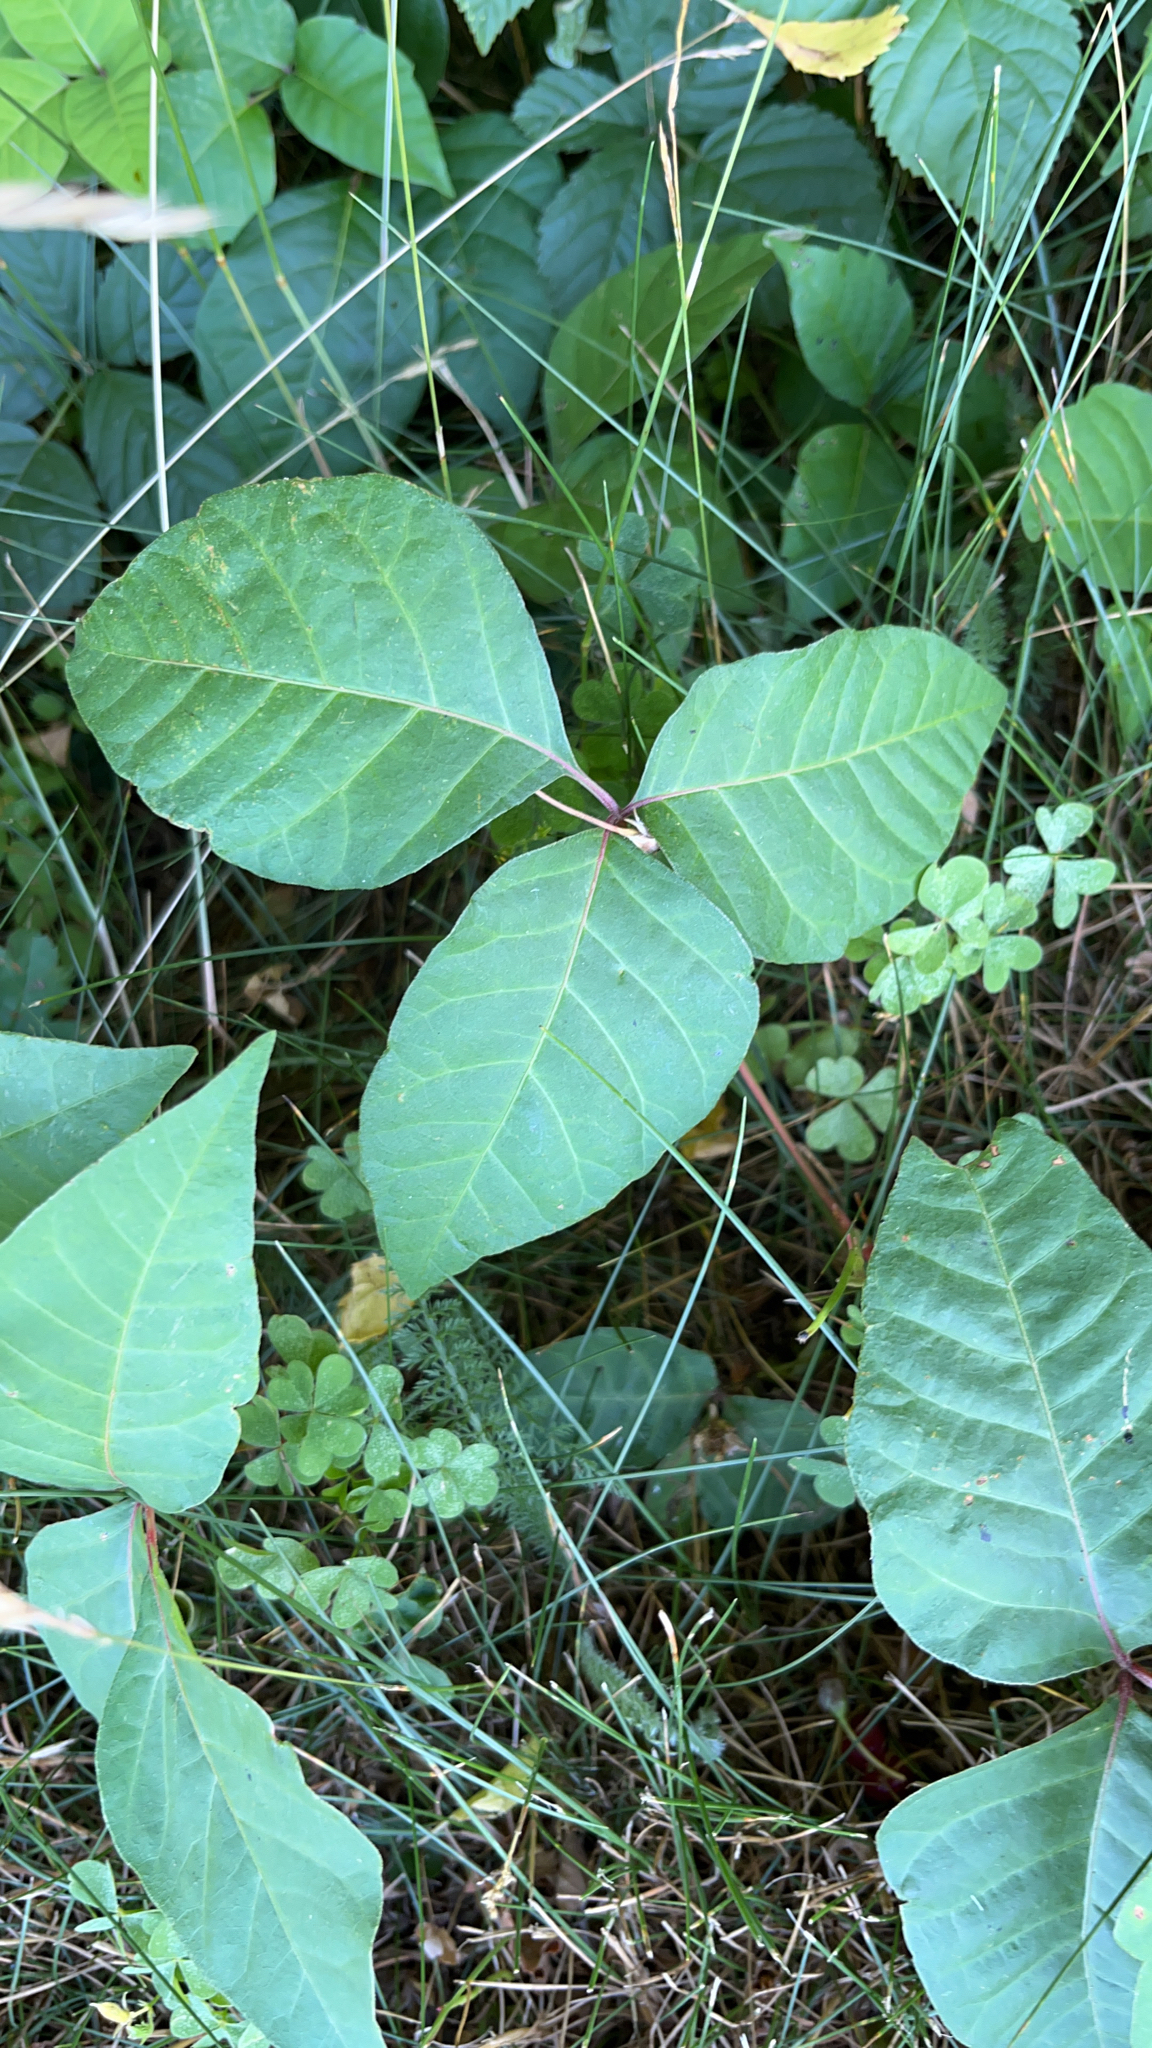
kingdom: Plantae
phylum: Tracheophyta
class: Magnoliopsida
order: Sapindales
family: Anacardiaceae
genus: Toxicodendron
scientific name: Toxicodendron radicans
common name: Poison ivy
